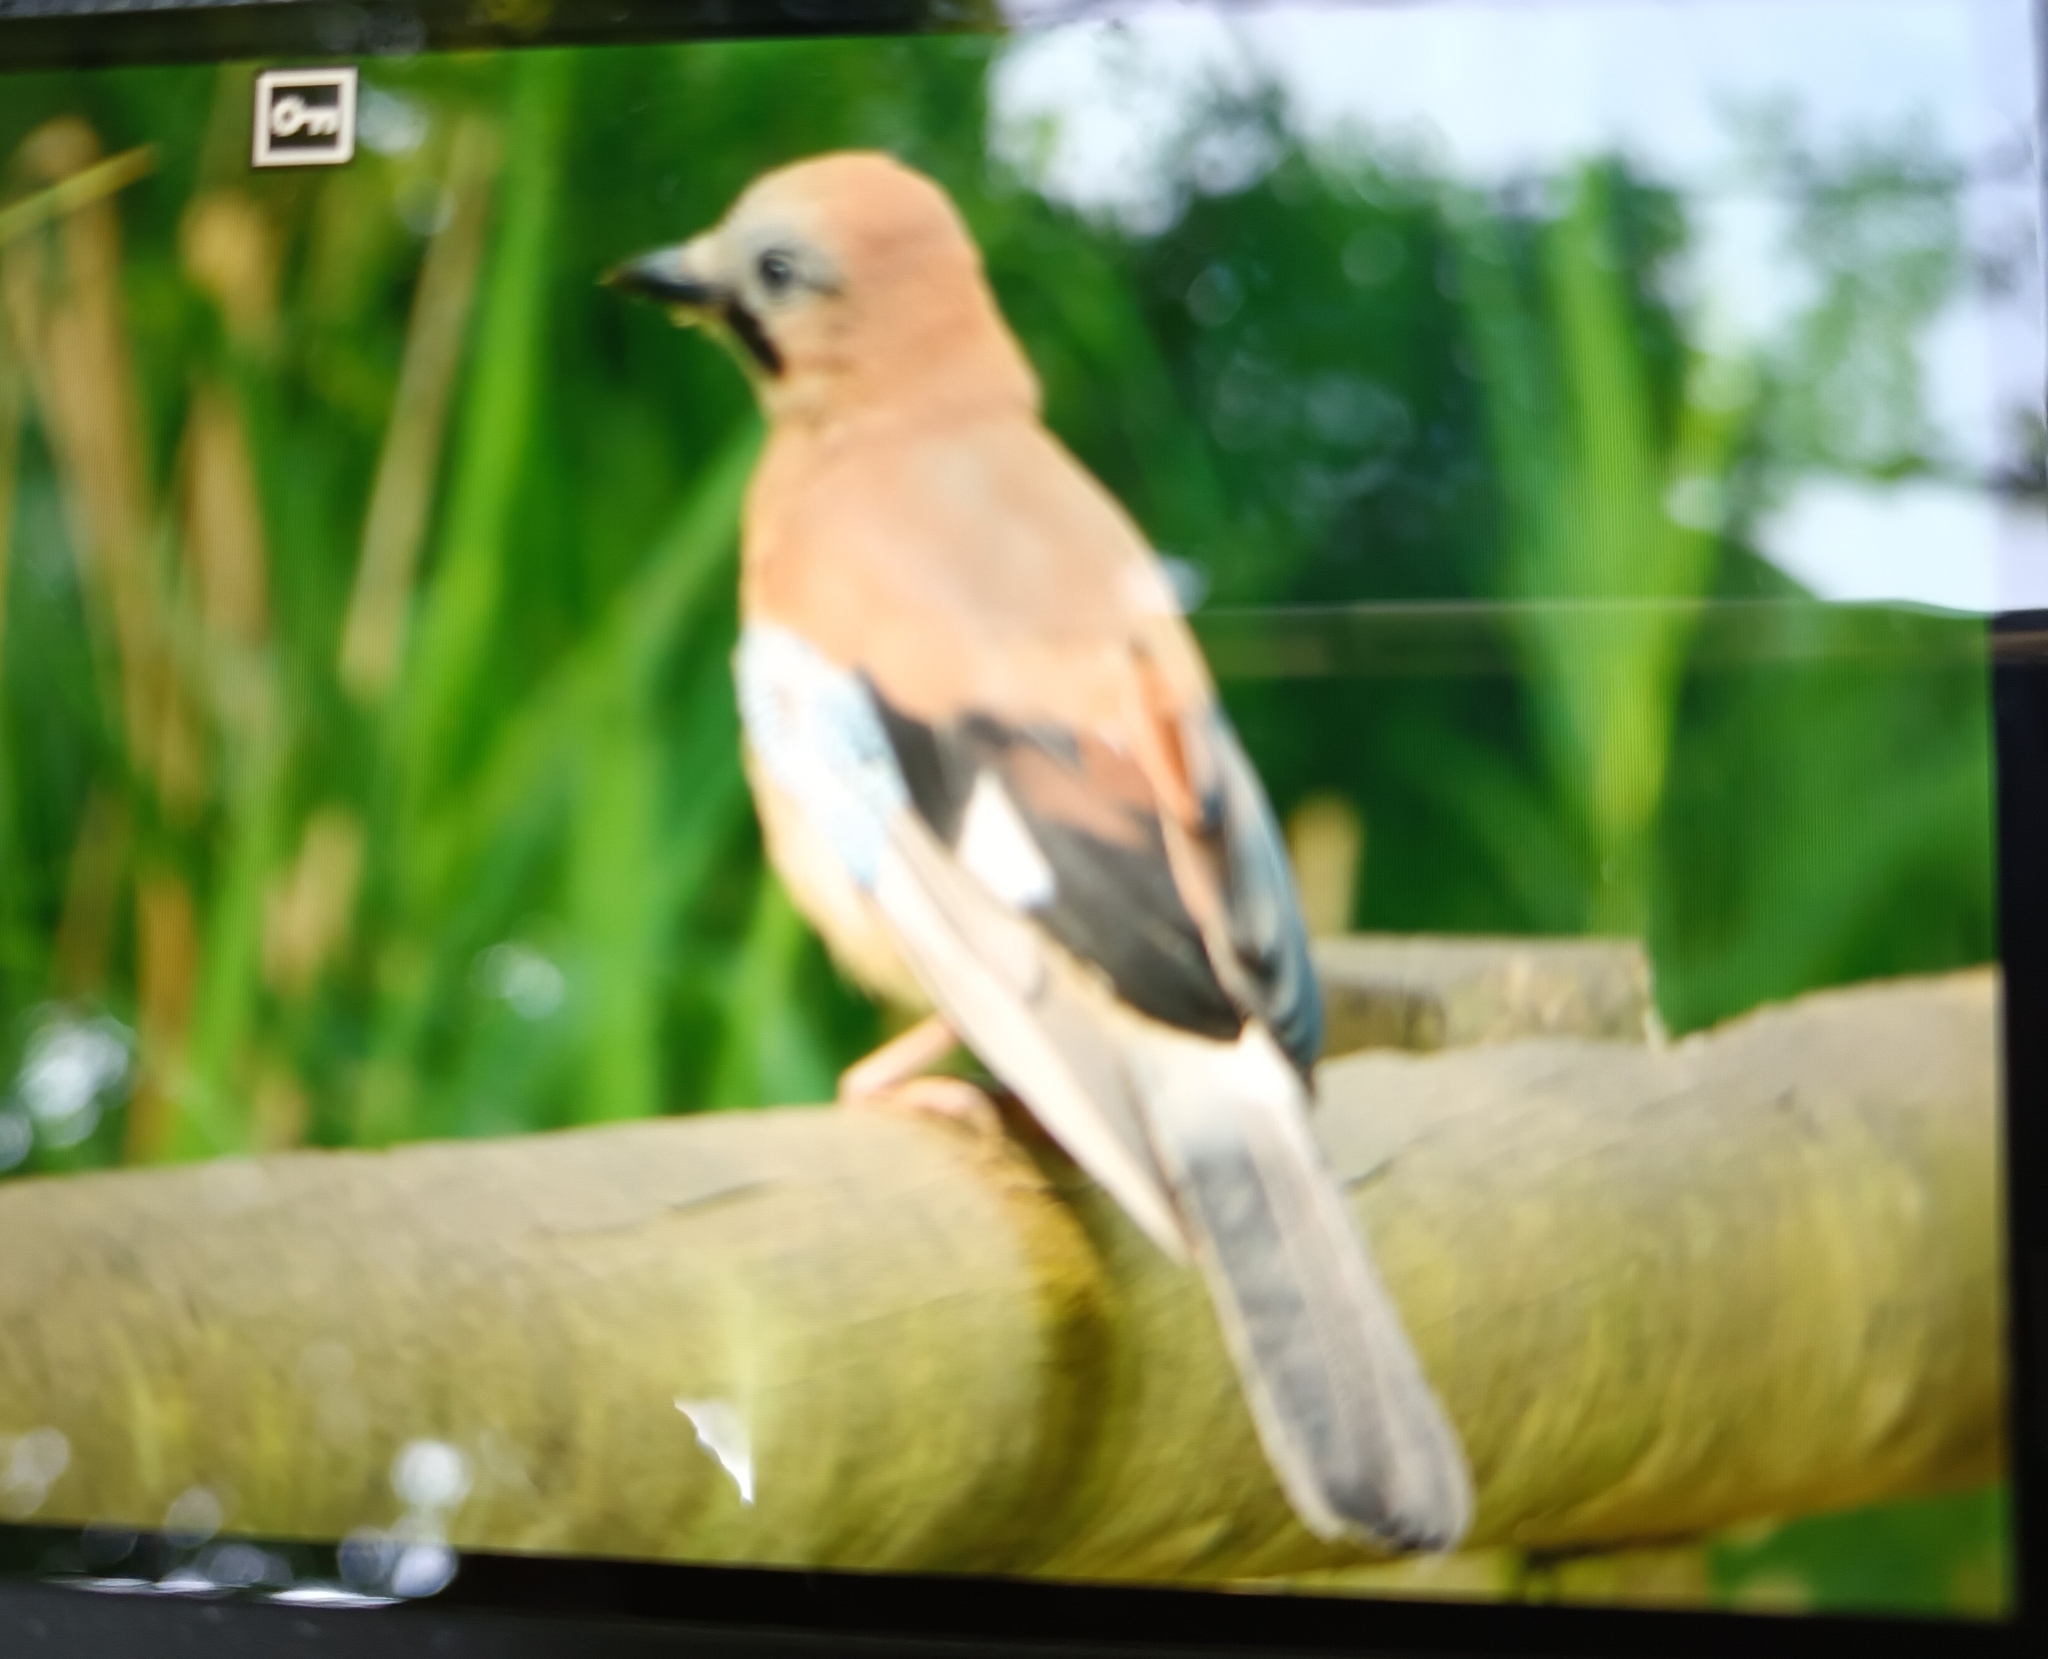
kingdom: Animalia
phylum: Chordata
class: Aves
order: Passeriformes
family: Corvidae
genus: Garrulus
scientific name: Garrulus glandarius
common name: Eurasian jay
